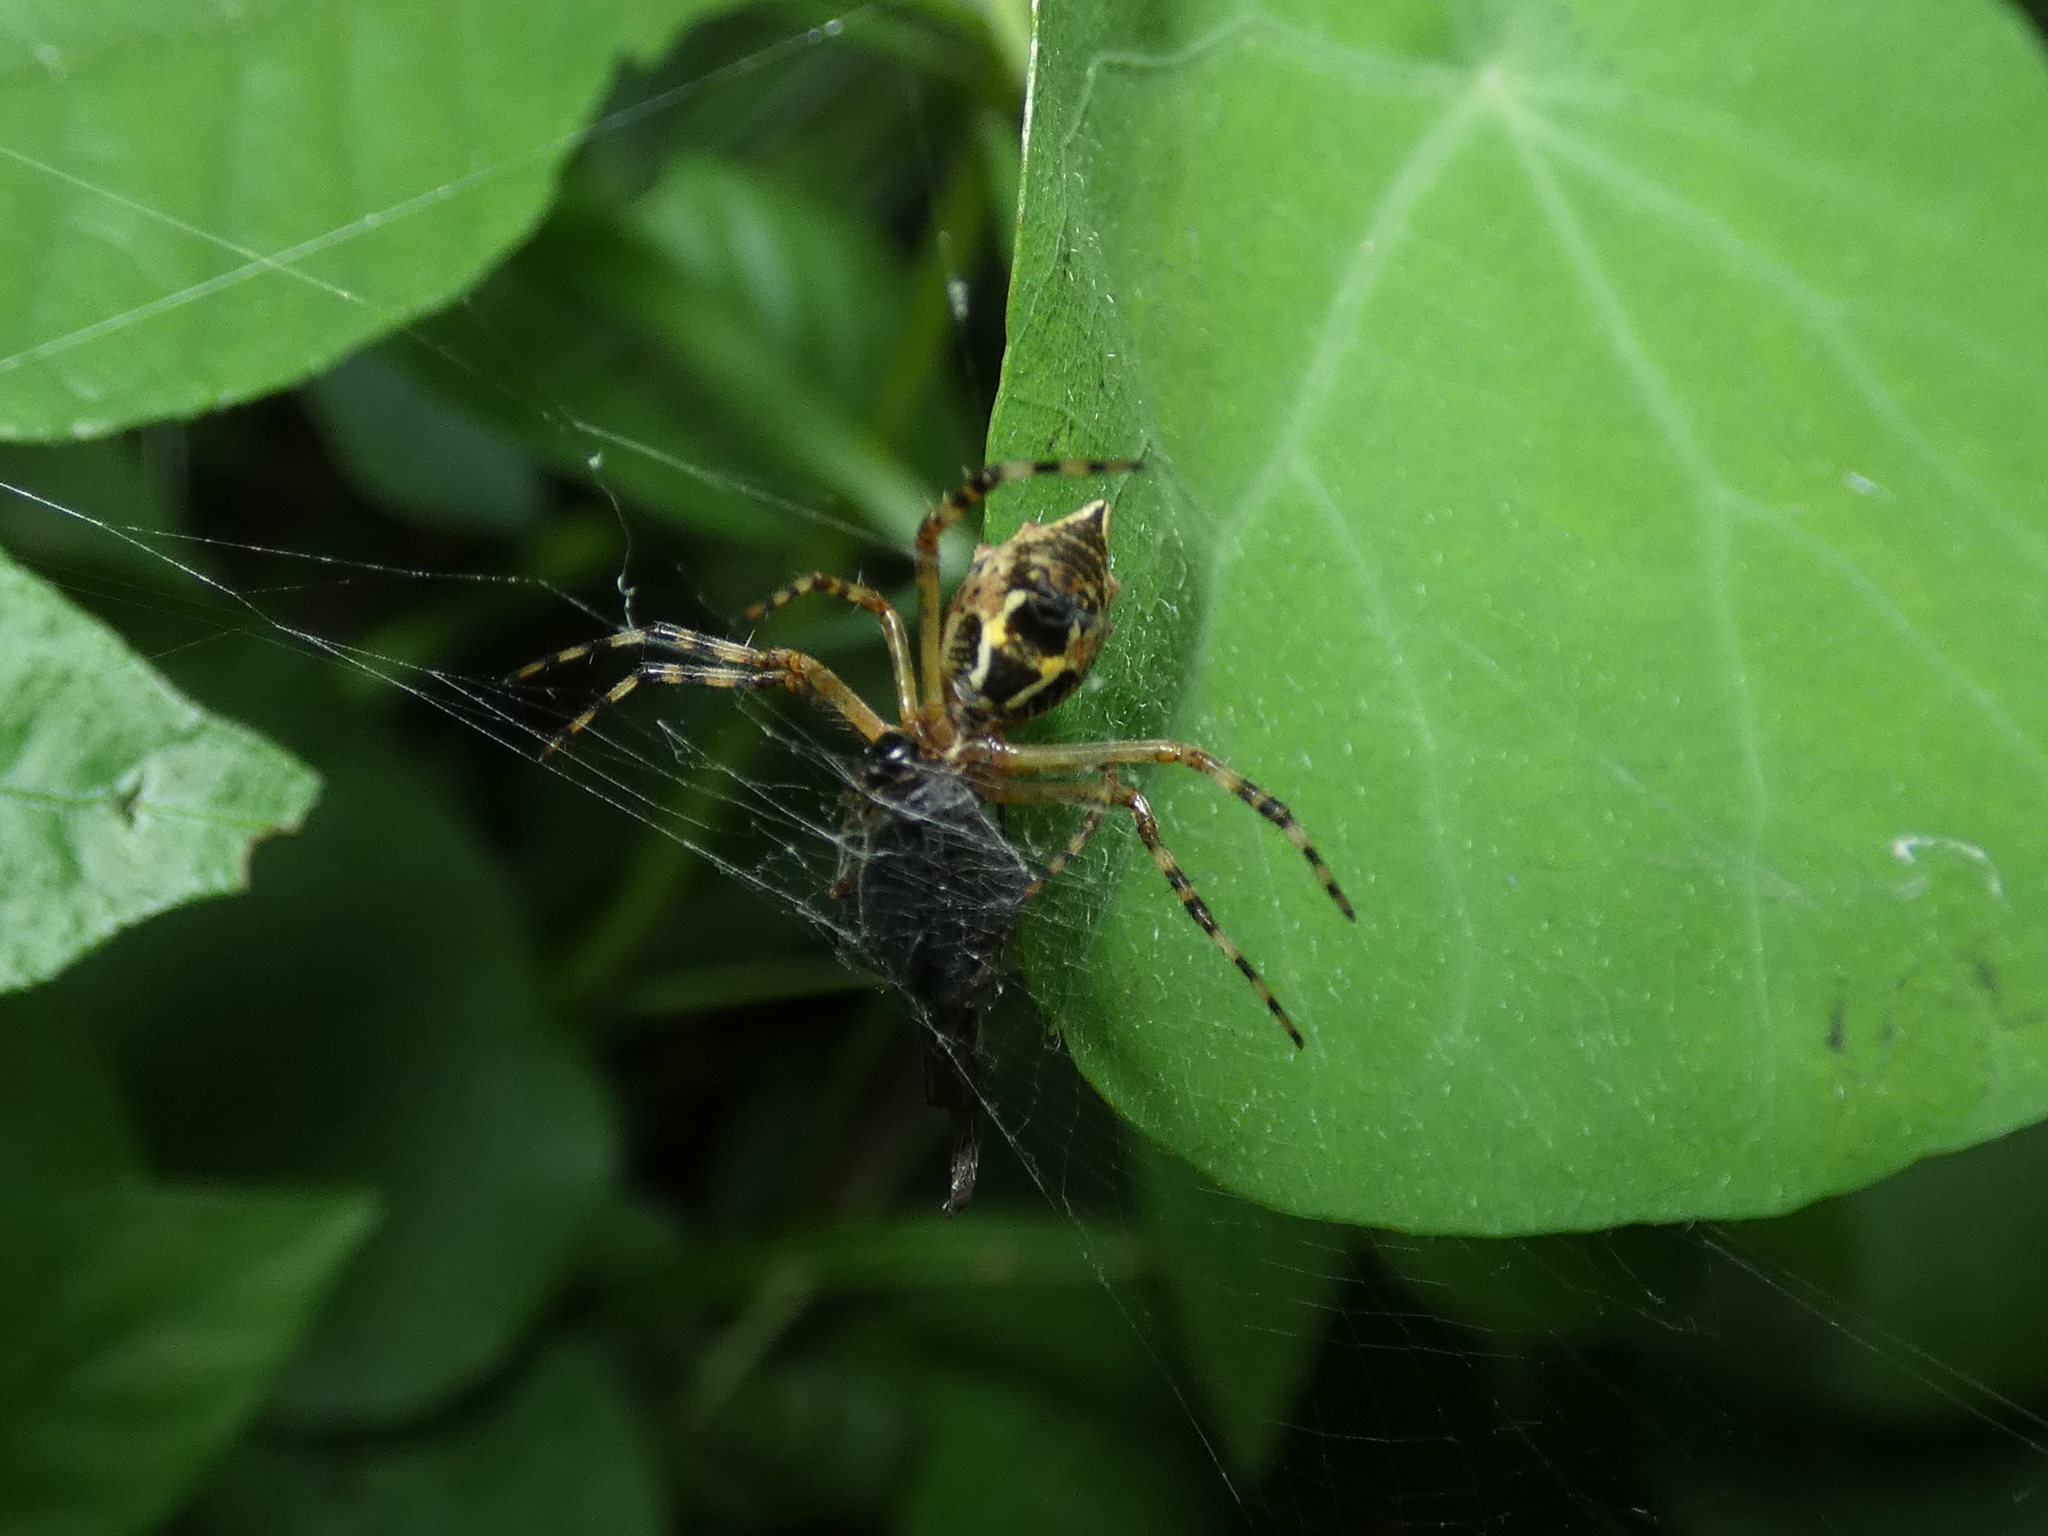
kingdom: Animalia
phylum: Arthropoda
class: Arachnida
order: Araneae
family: Araneidae
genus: Argiope
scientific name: Argiope argentata
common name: Orb weavers
